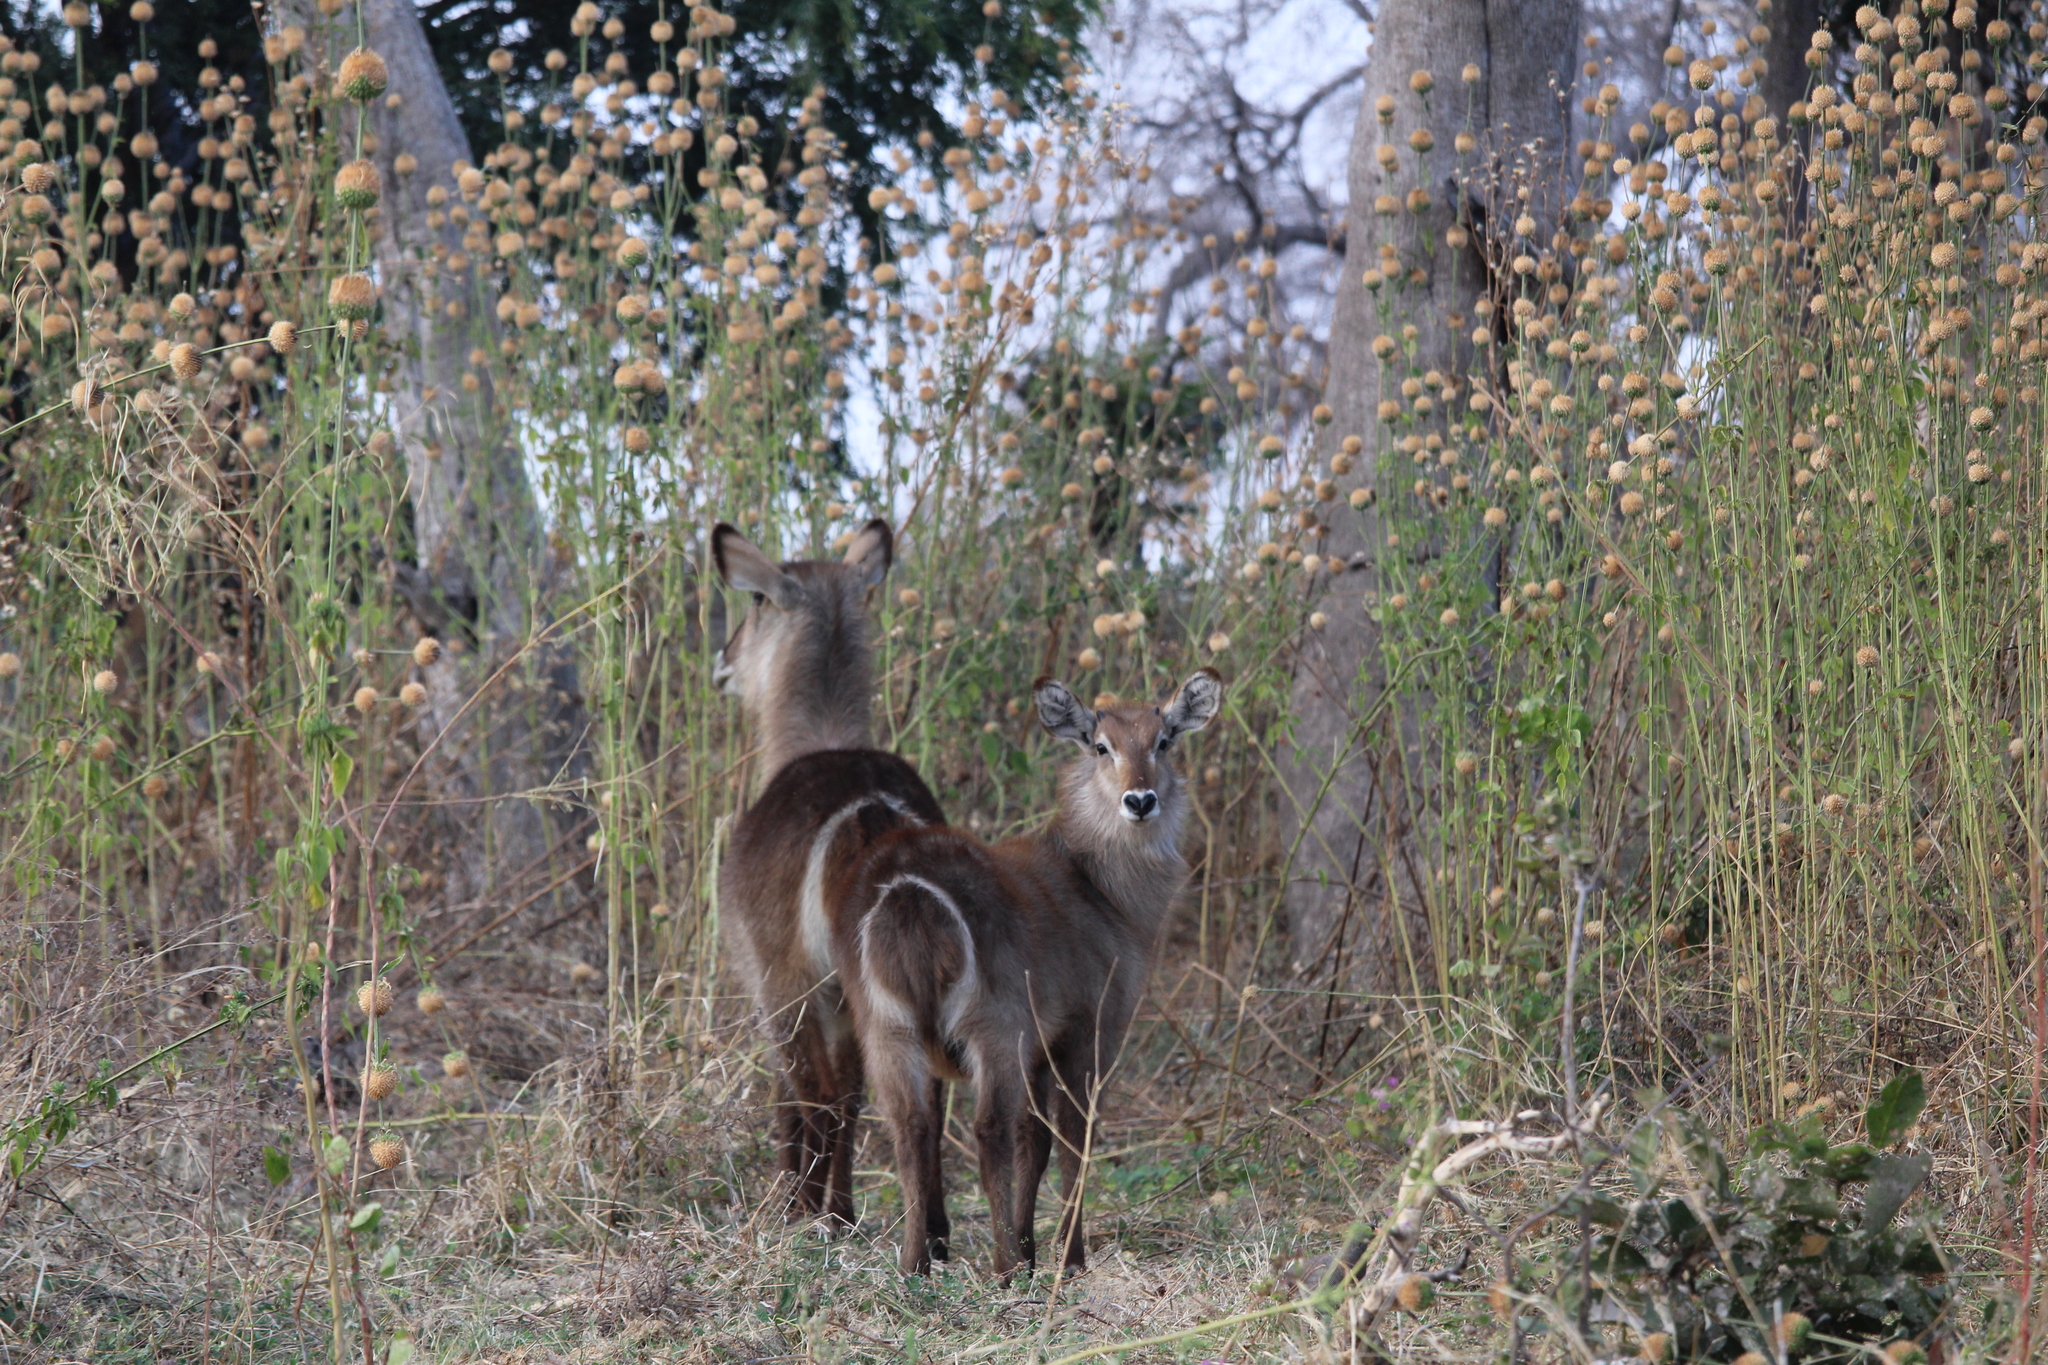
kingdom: Animalia
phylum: Chordata
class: Mammalia
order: Artiodactyla
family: Bovidae
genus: Kobus
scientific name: Kobus ellipsiprymnus
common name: Waterbuck
